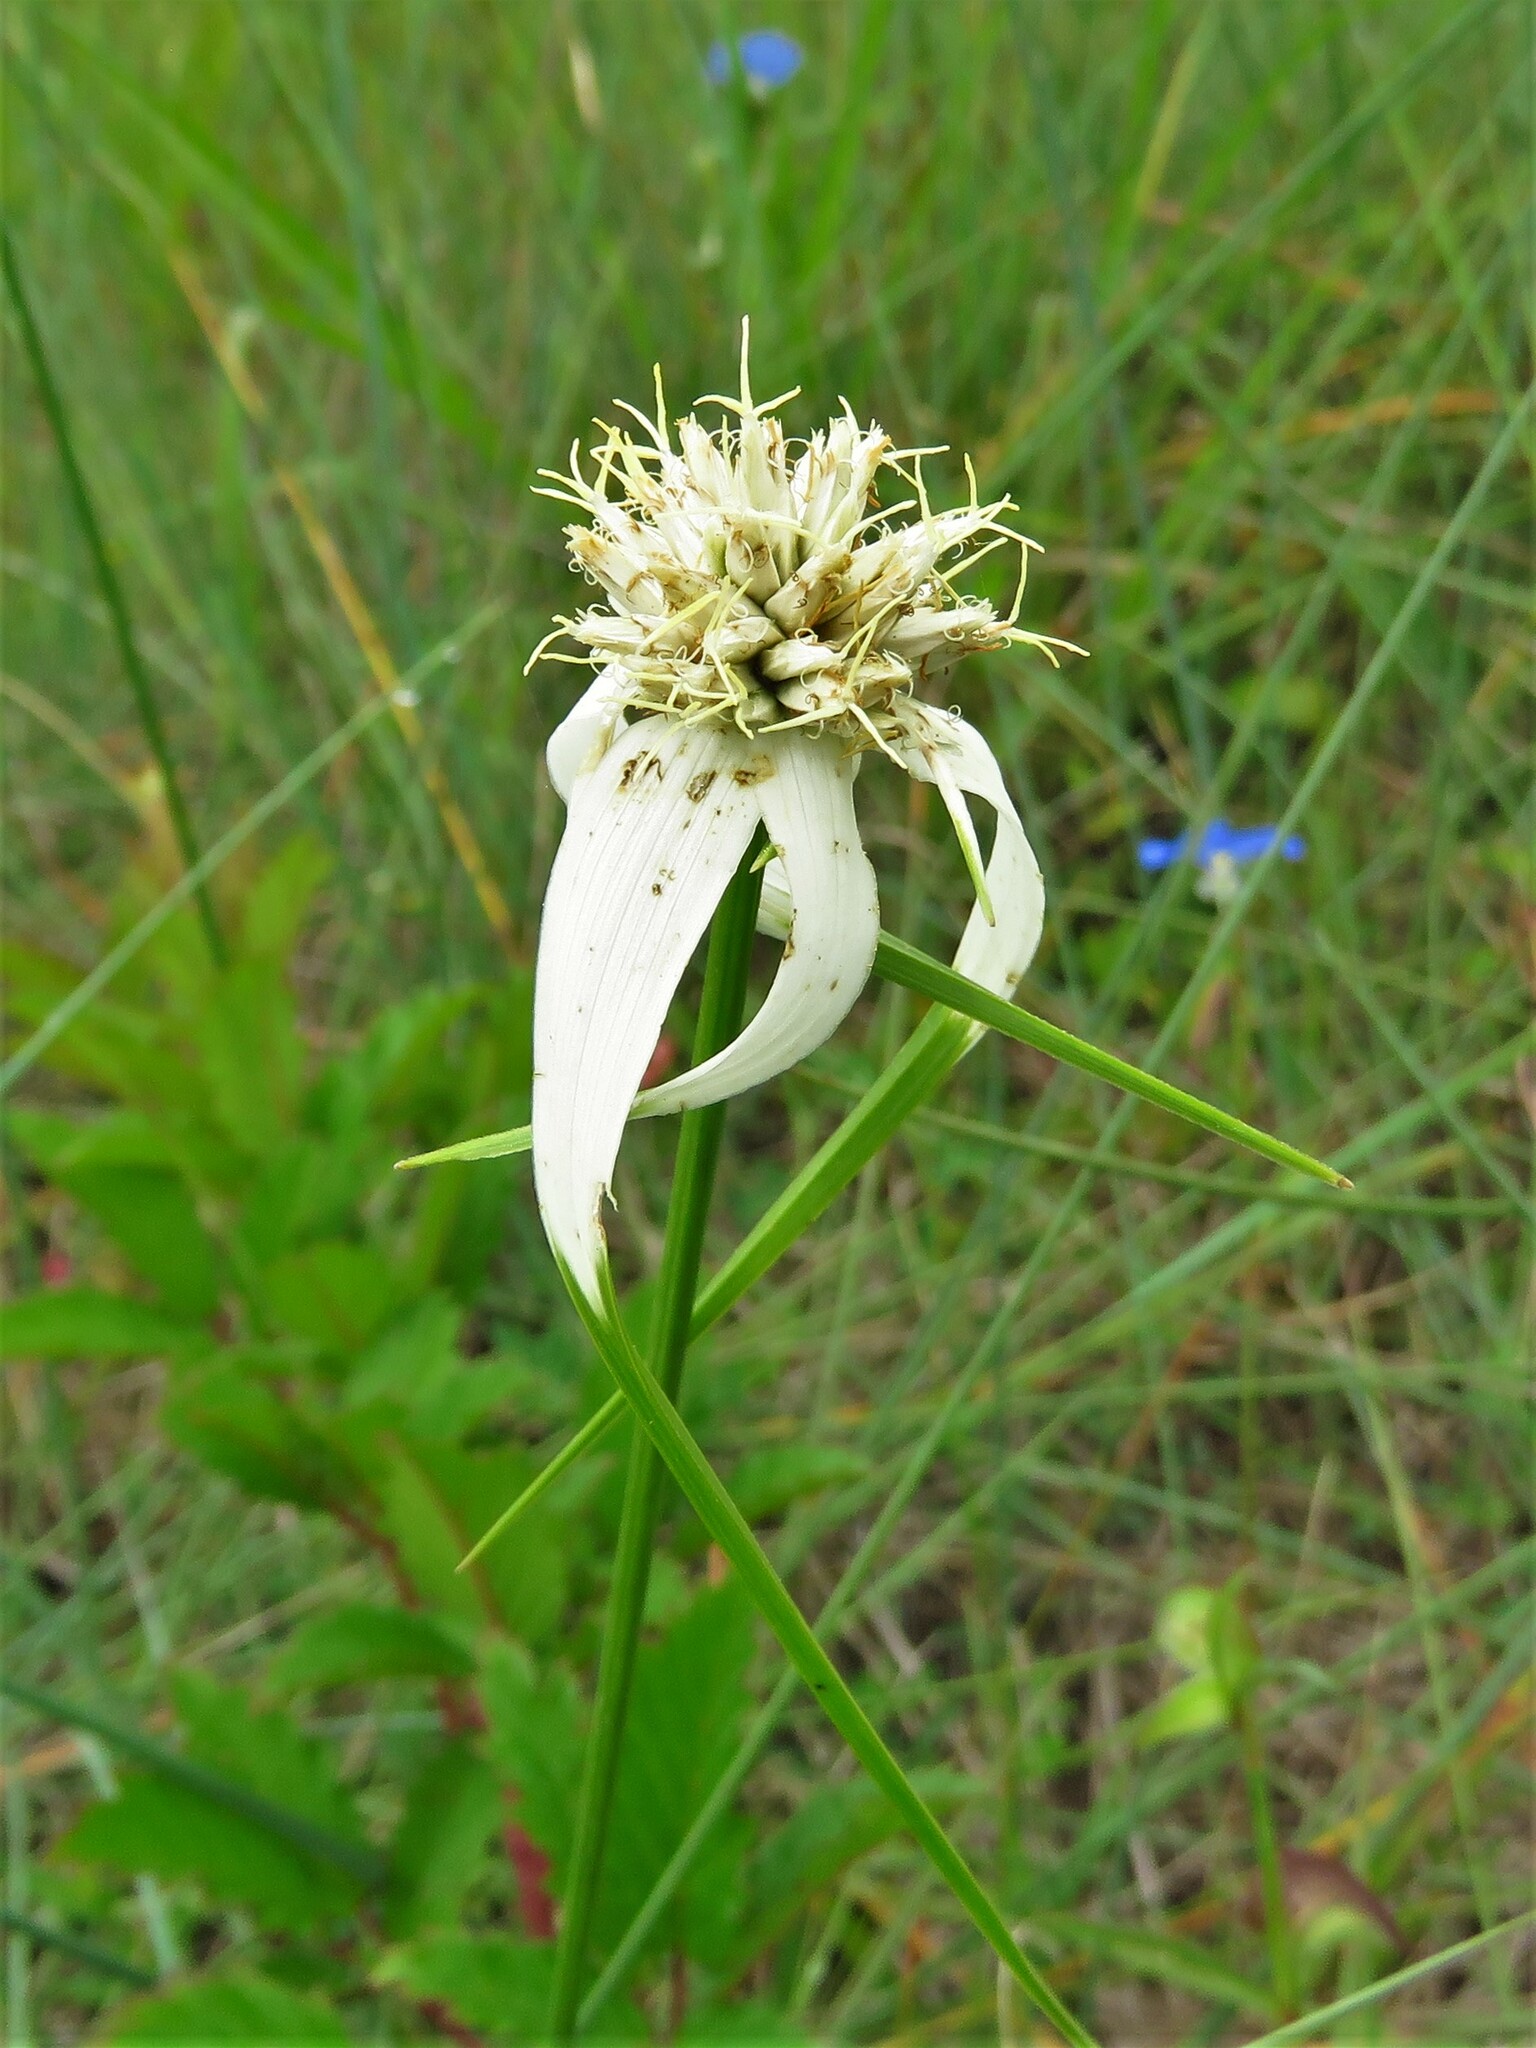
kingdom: Plantae
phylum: Tracheophyta
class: Liliopsida
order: Poales
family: Cyperaceae
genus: Rhynchospora
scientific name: Rhynchospora colorata
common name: Star sedge
